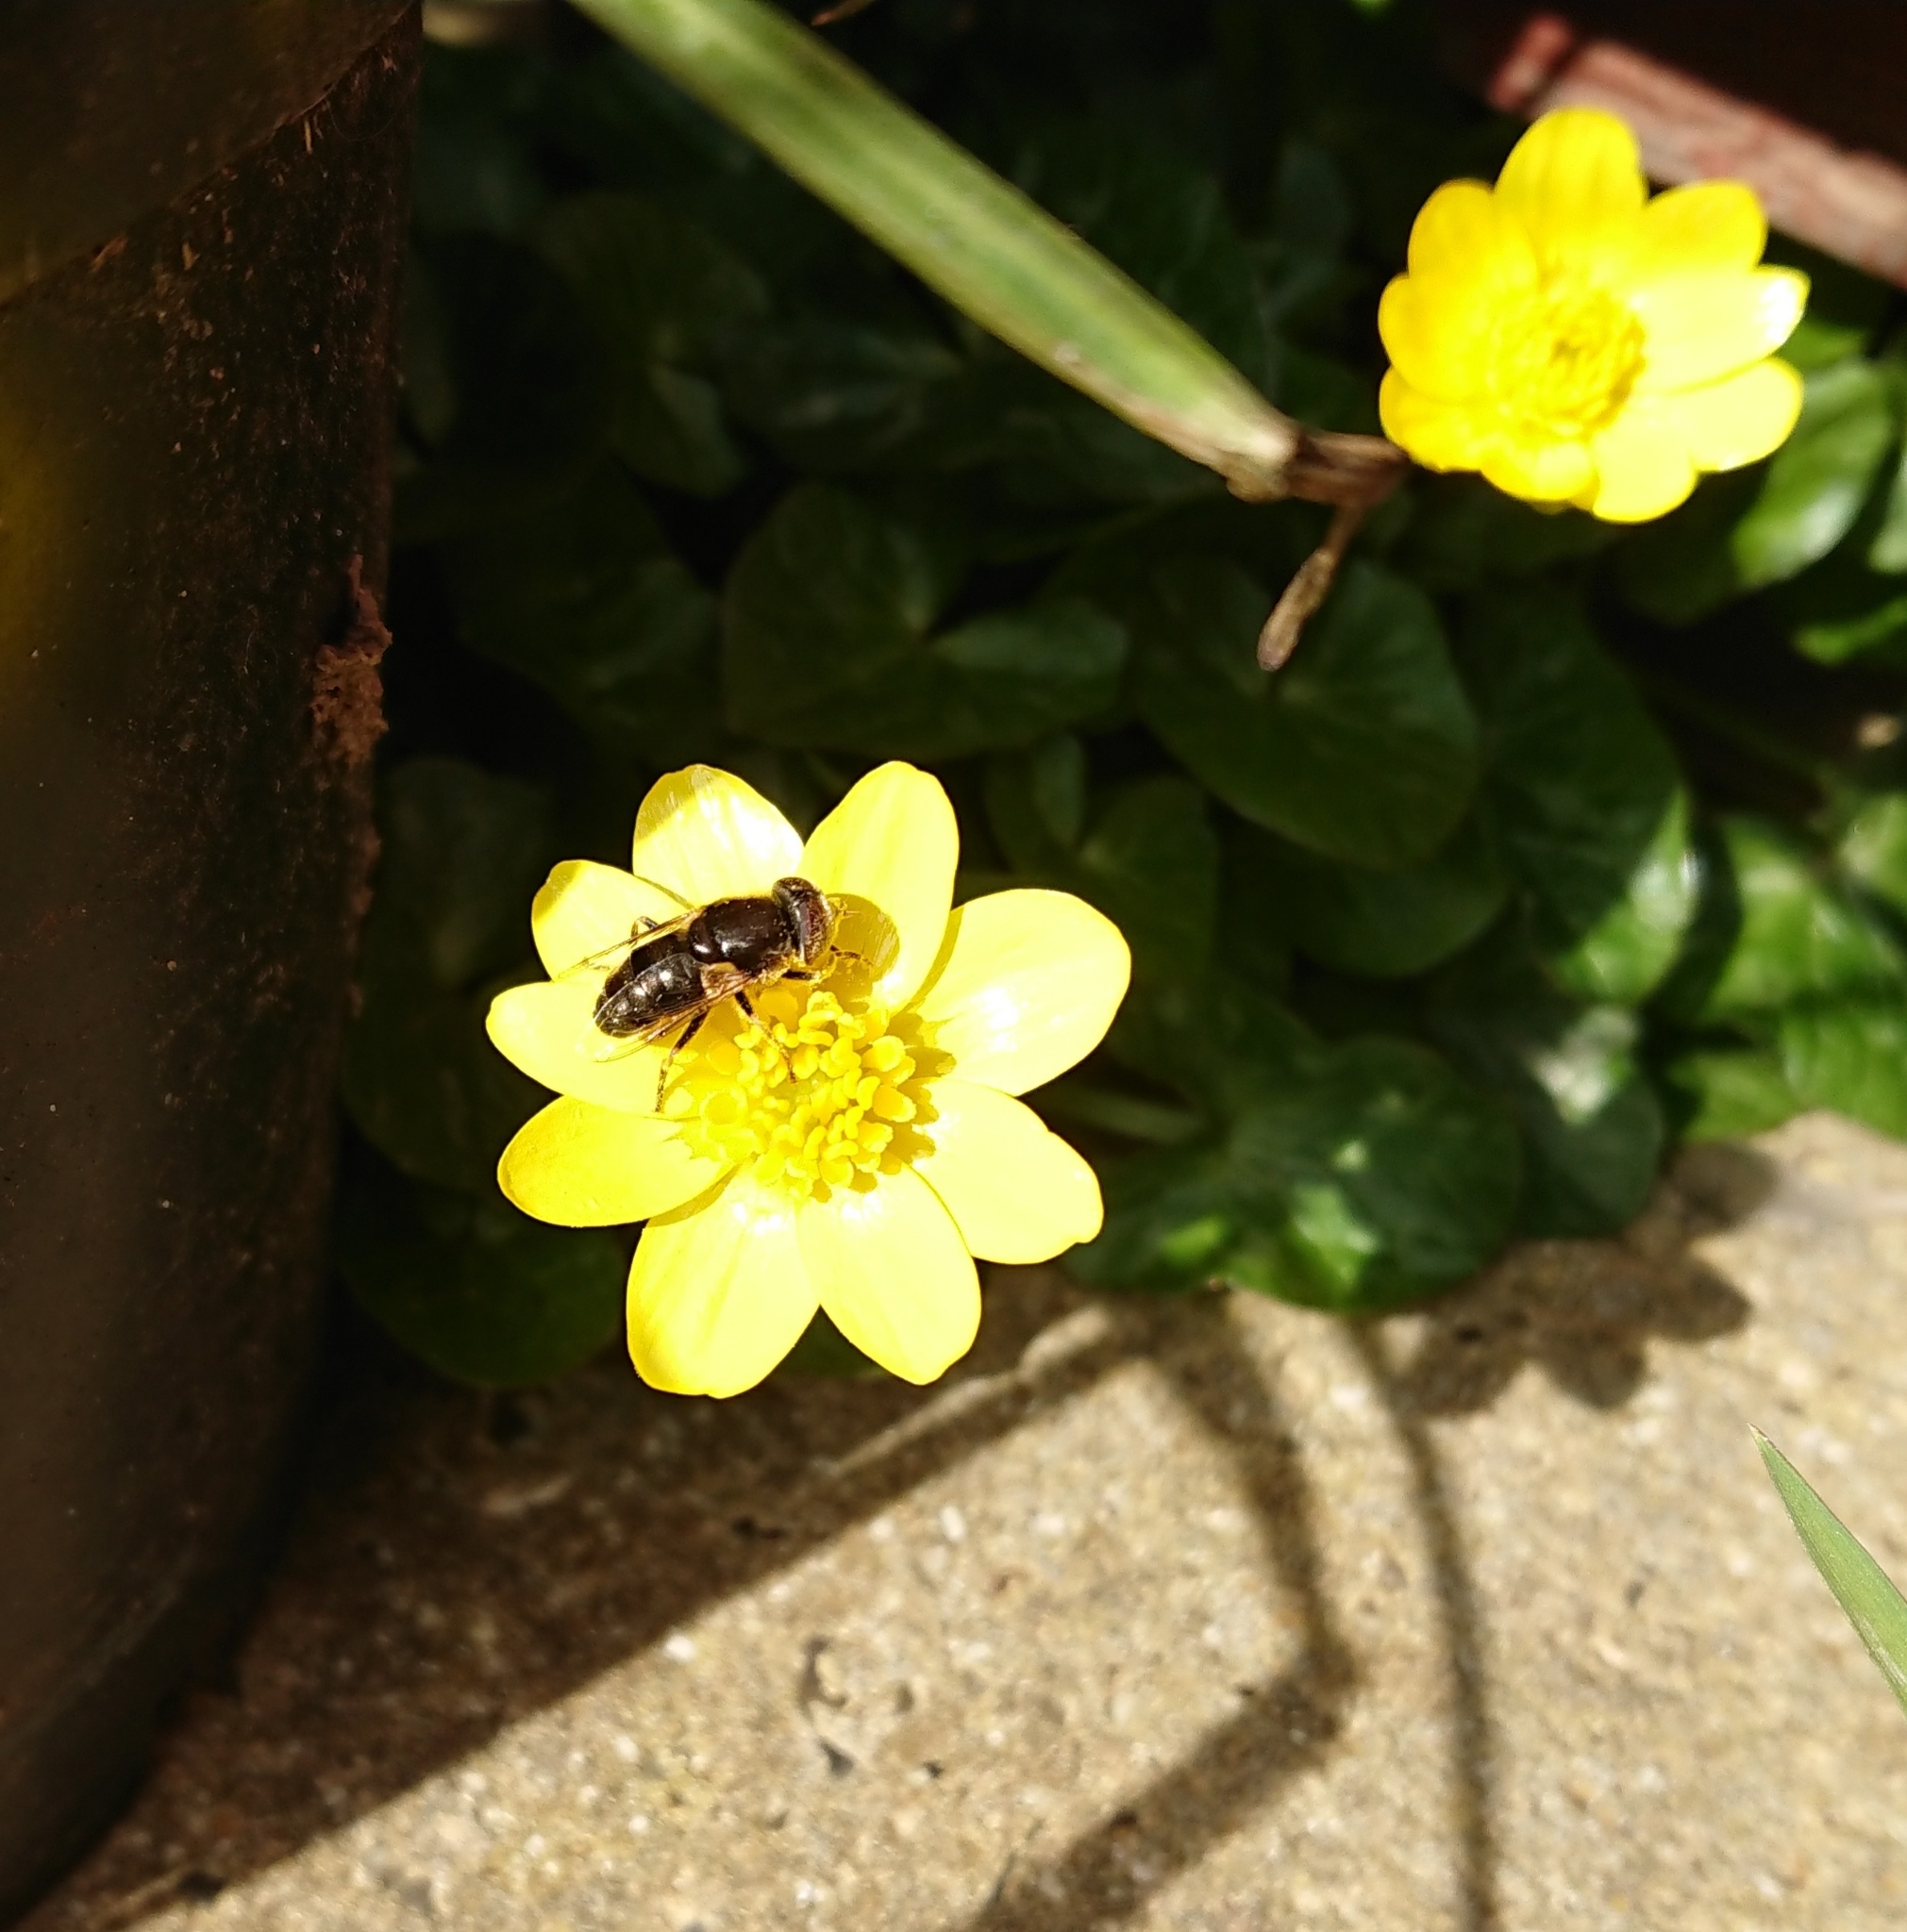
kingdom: Animalia
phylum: Arthropoda
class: Insecta
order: Diptera
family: Syrphidae
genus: Eristalinus
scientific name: Eristalinus aeneus
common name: Syrphid fly
